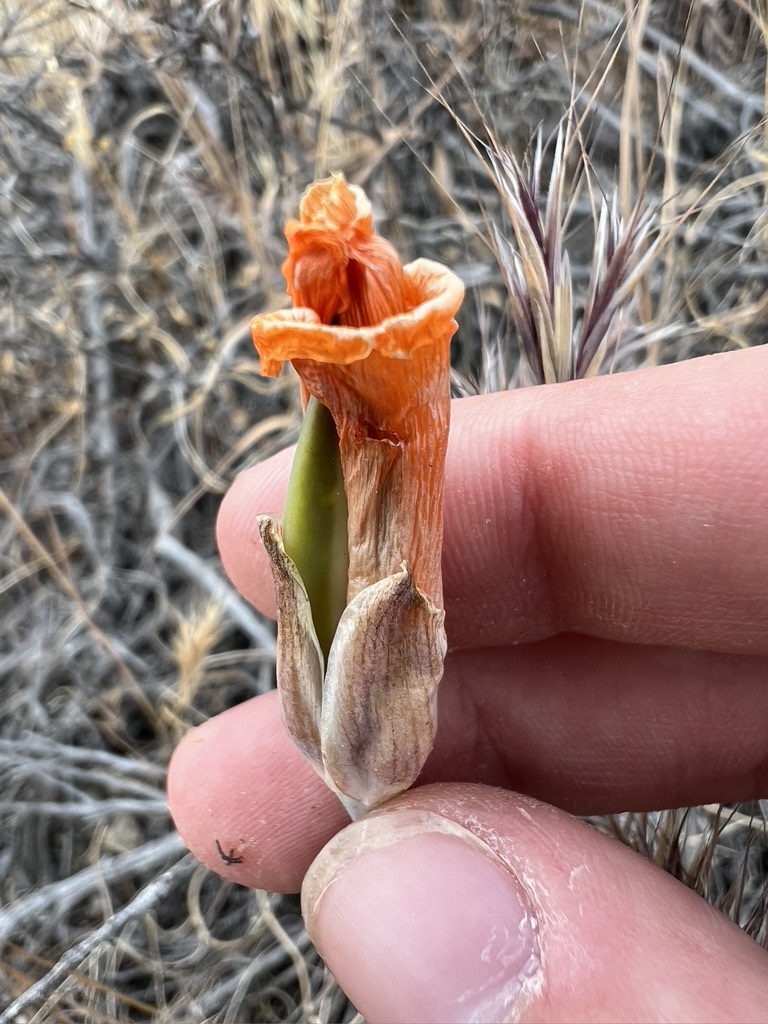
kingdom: Plantae
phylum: Tracheophyta
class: Liliopsida
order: Liliales
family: Liliaceae
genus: Calochortus
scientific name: Calochortus kennedyi
